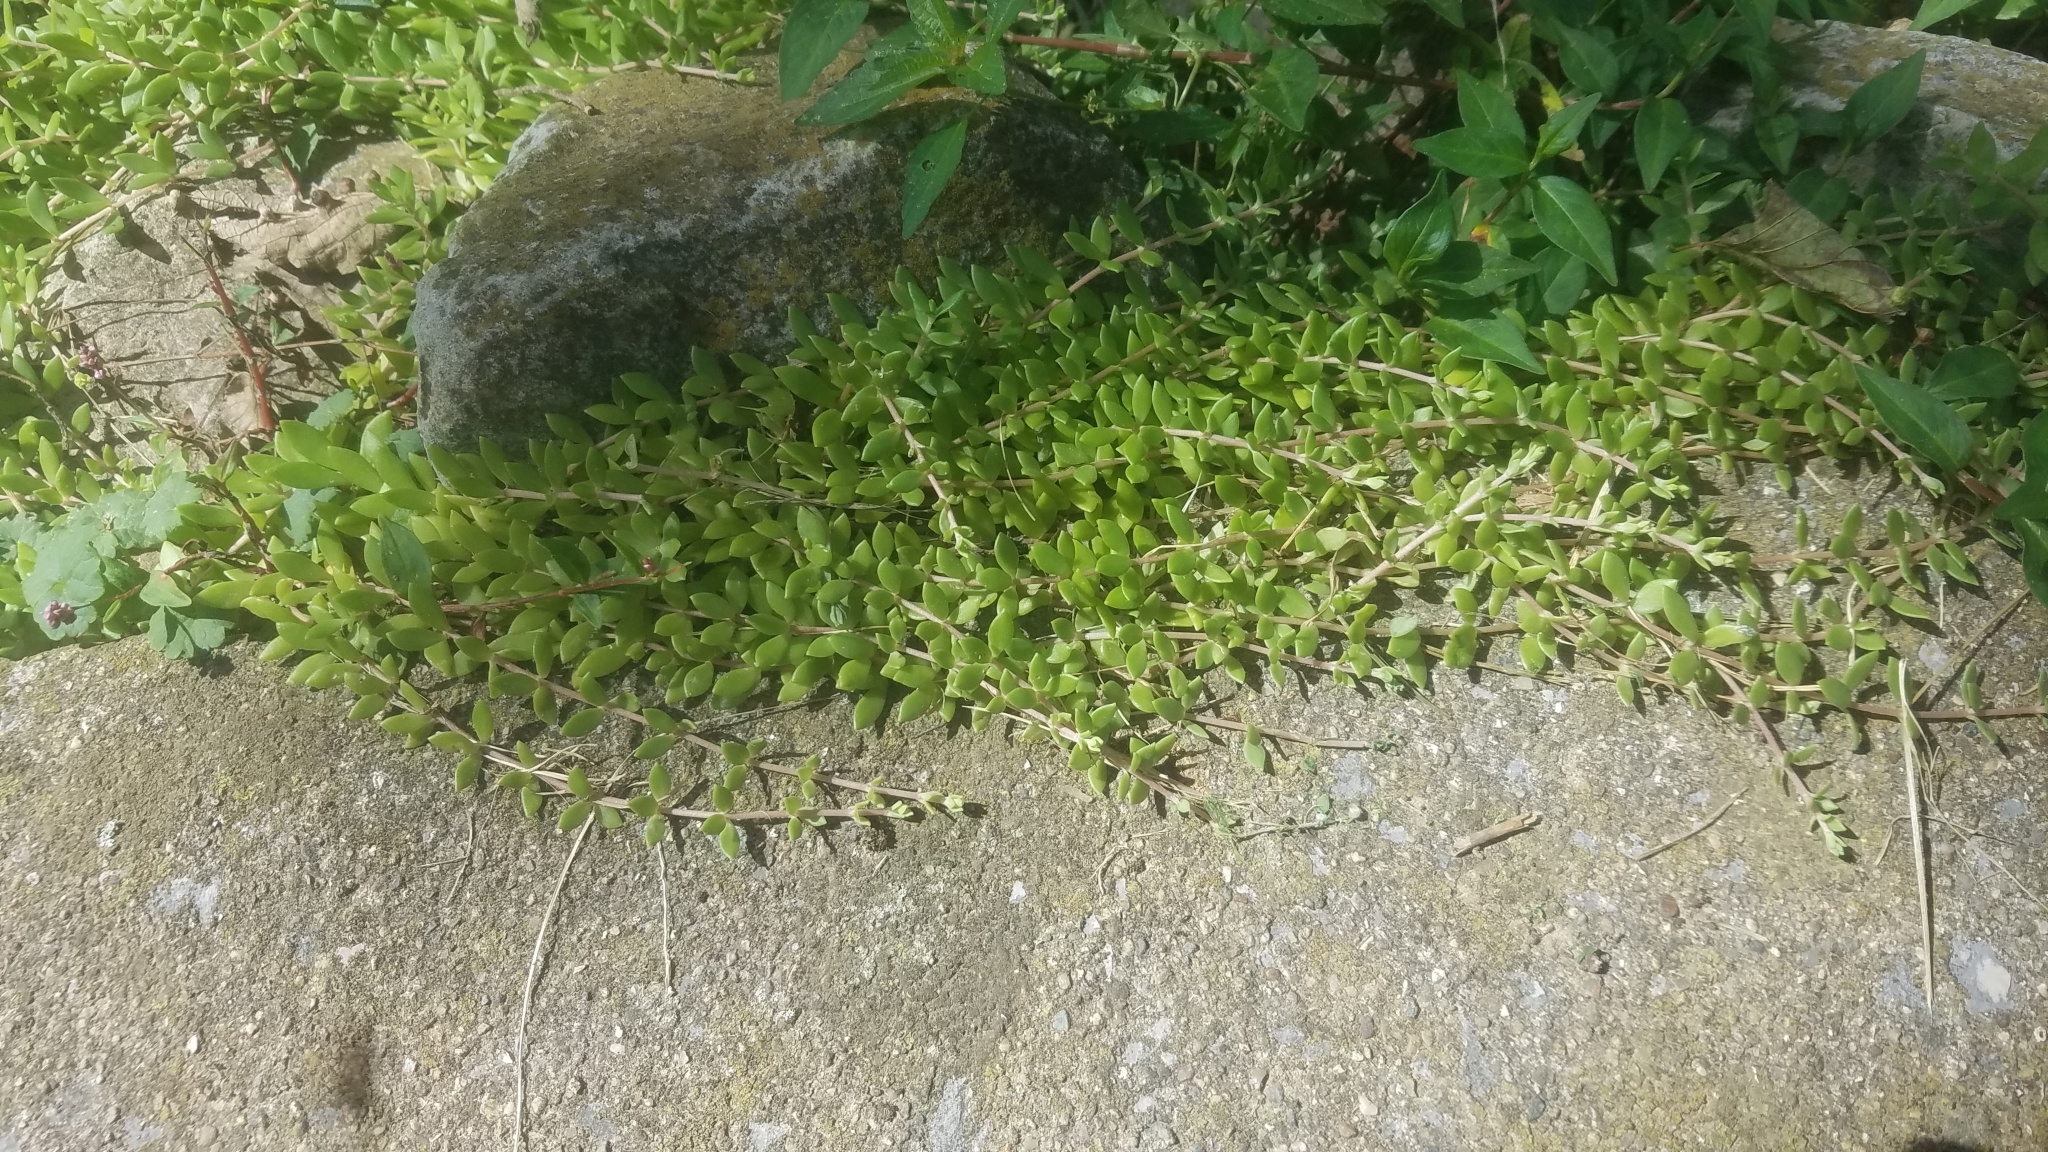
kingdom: Plantae
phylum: Tracheophyta
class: Magnoliopsida
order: Saxifragales
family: Crassulaceae
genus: Sedum
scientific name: Sedum sarmentosum
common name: Stringy stonecrop
